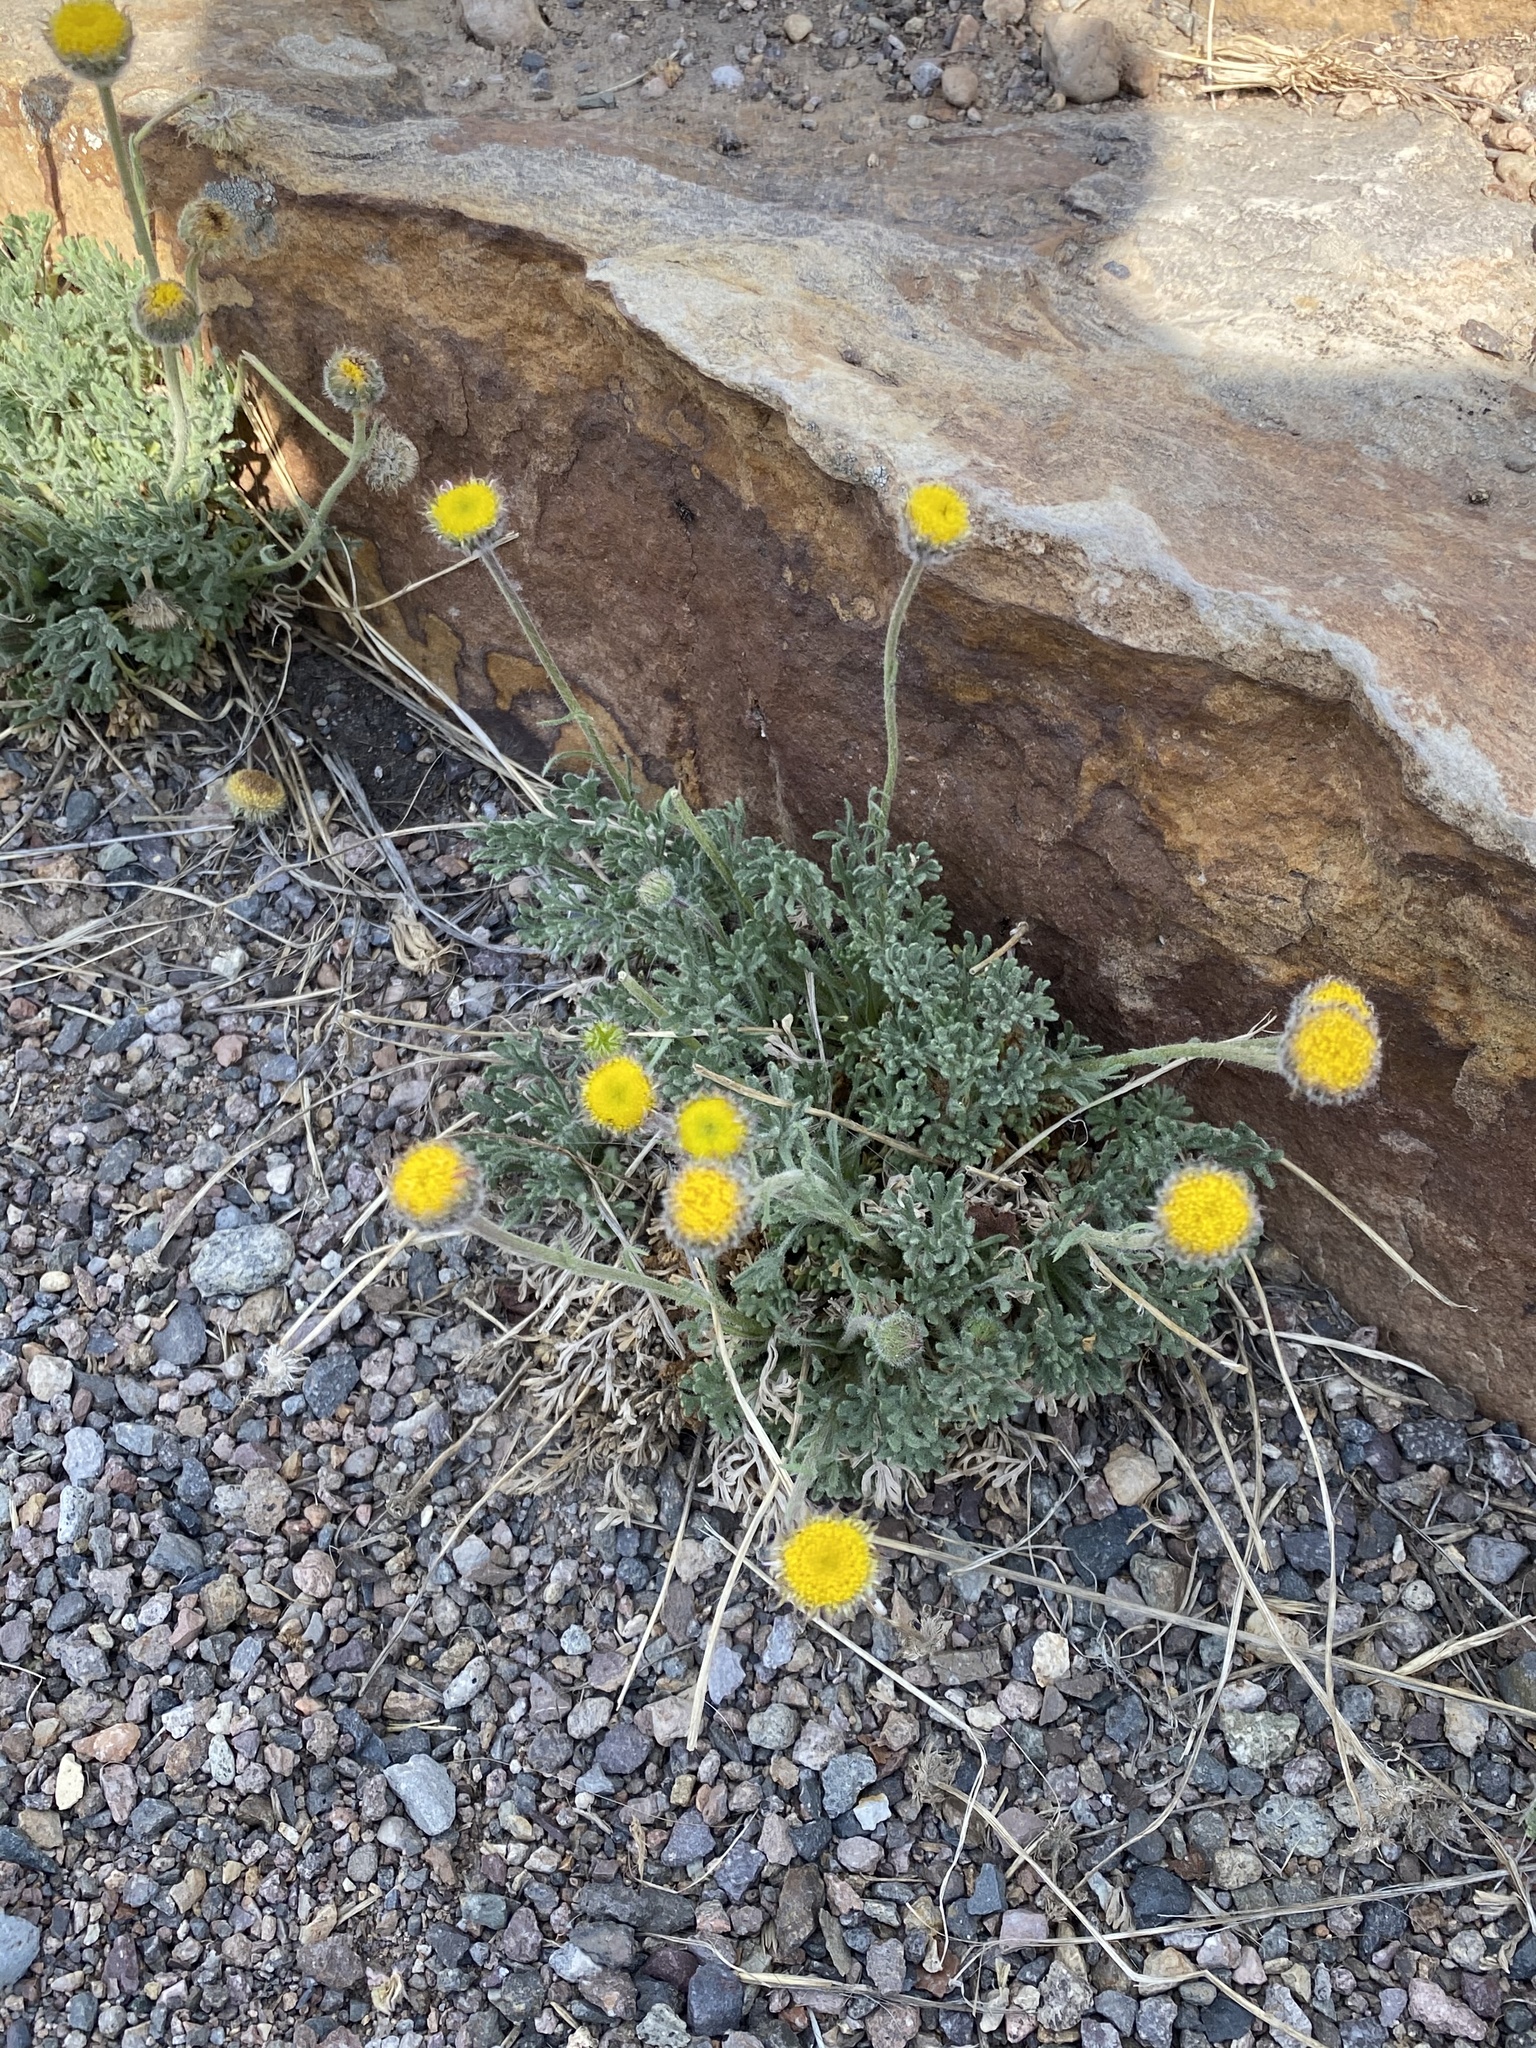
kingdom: Plantae
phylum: Tracheophyta
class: Magnoliopsida
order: Asterales
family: Asteraceae
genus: Erigeron
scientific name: Erigeron compositus
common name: Dwarf mountain fleabane
